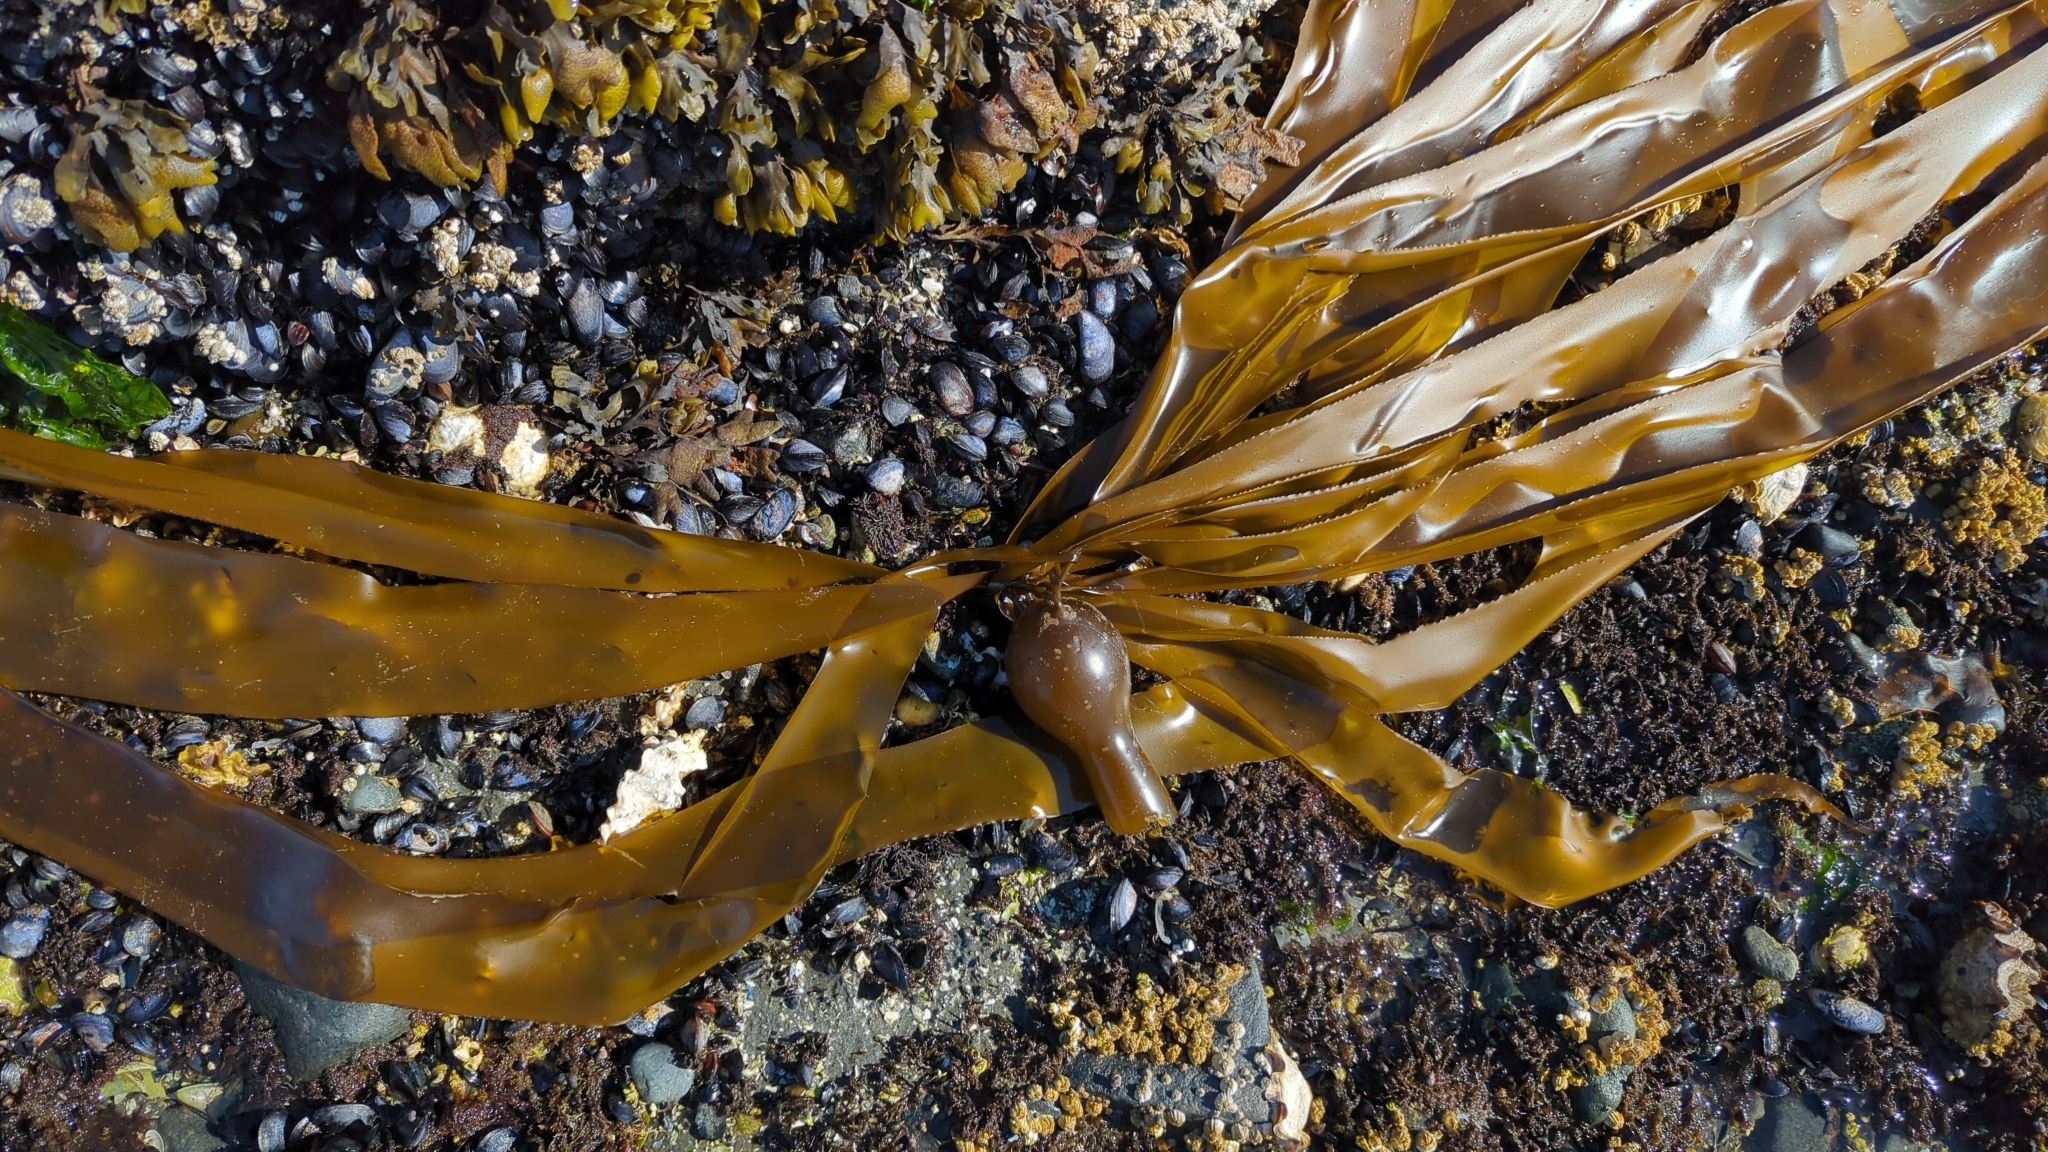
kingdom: Chromista
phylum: Ochrophyta
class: Phaeophyceae
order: Laminariales
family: Laminariaceae
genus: Nereocystis
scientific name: Nereocystis luetkeana
